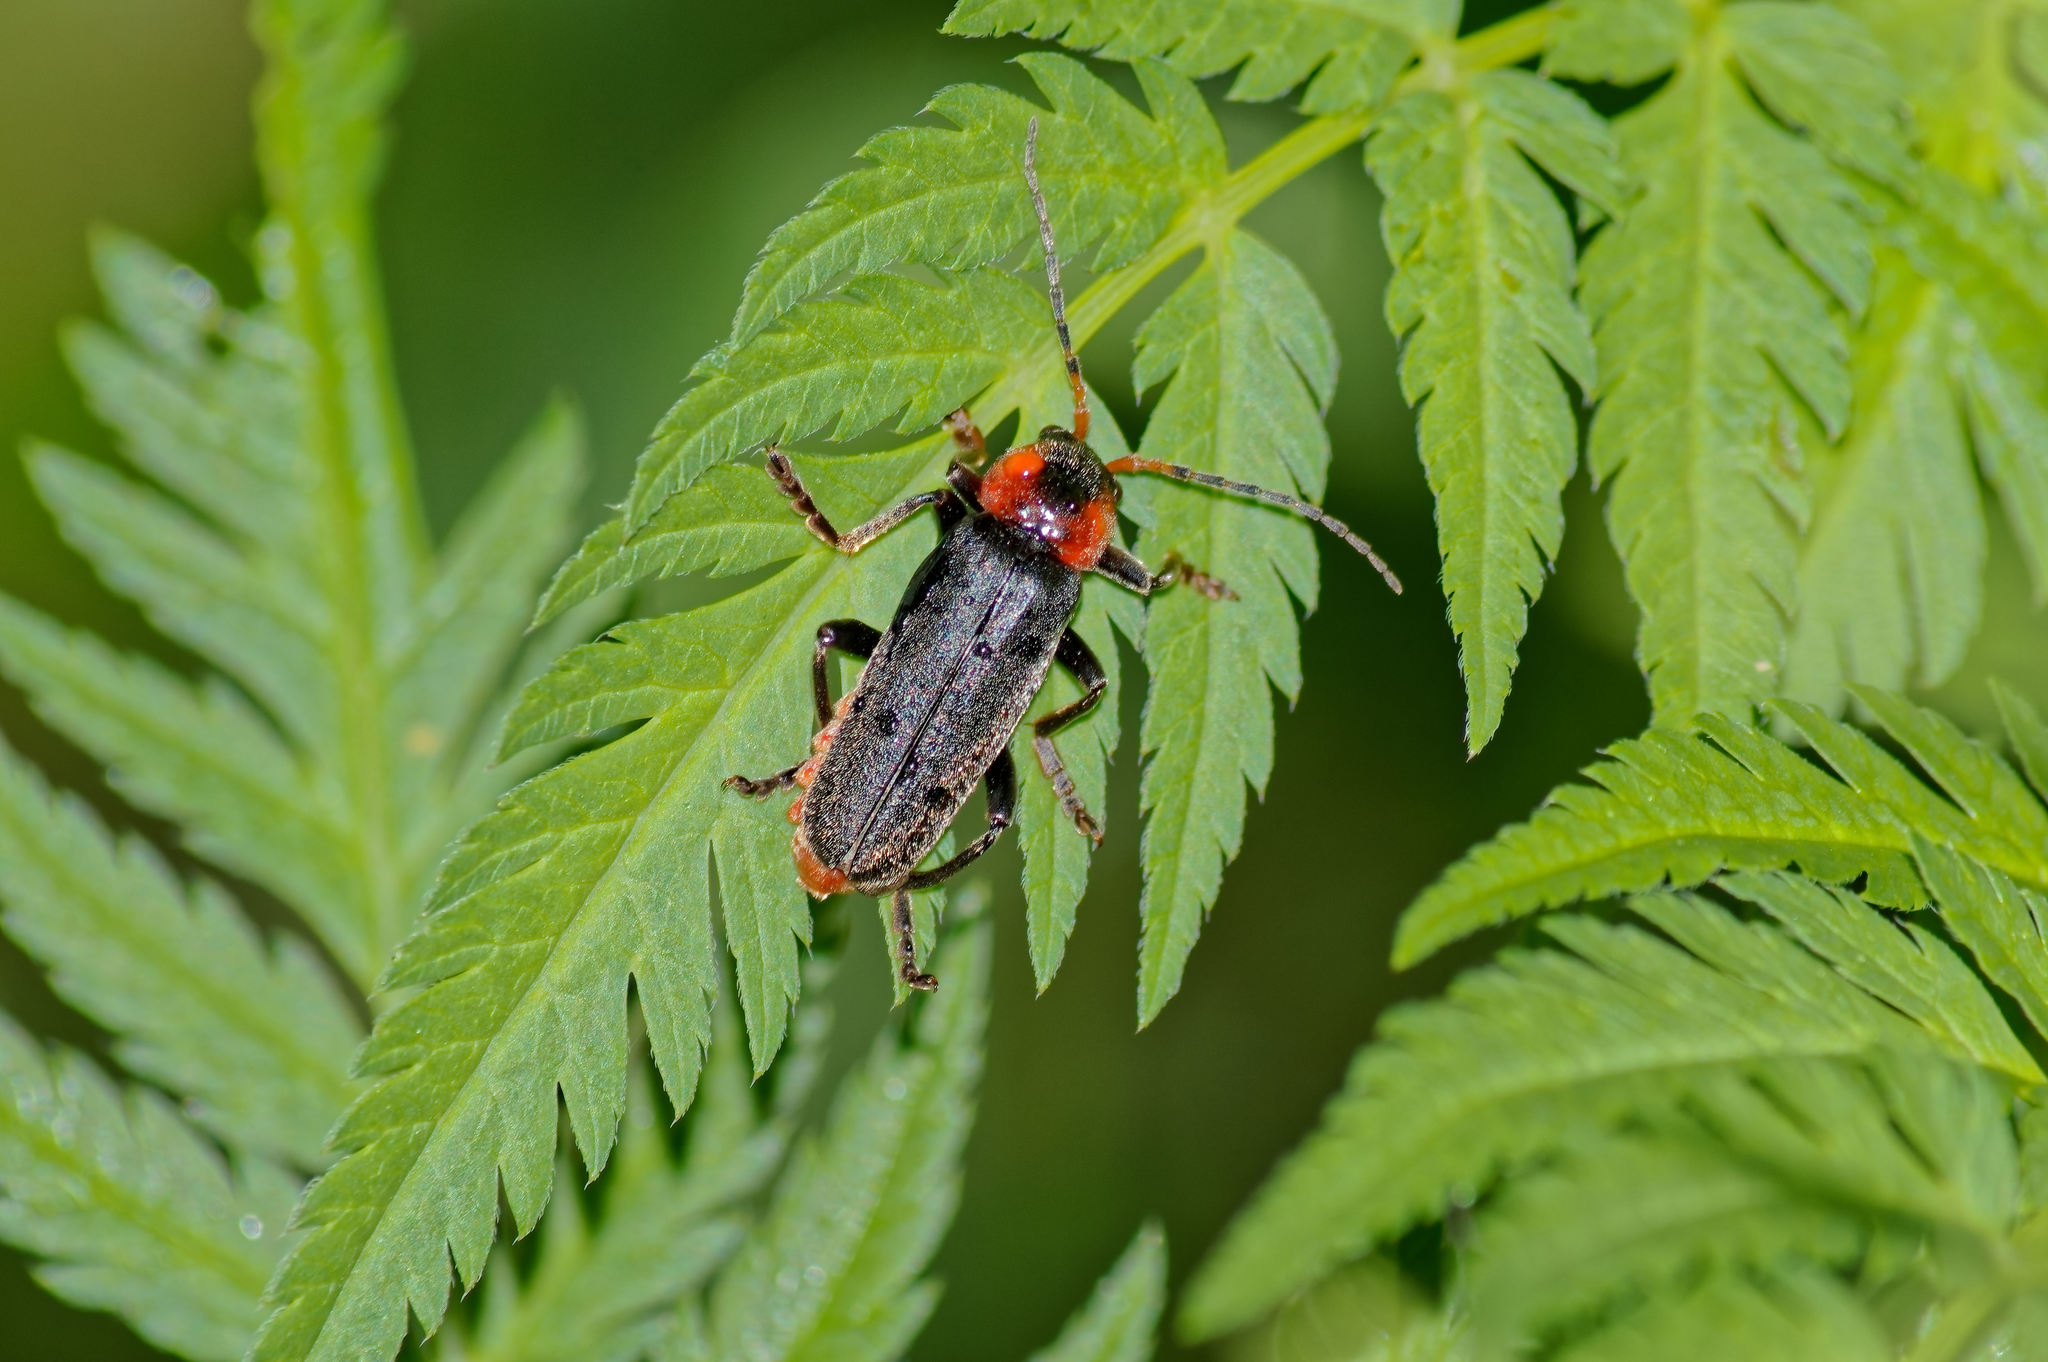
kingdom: Animalia
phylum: Arthropoda
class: Insecta
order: Coleoptera
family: Cantharidae
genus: Cantharis
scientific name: Cantharis fusca
